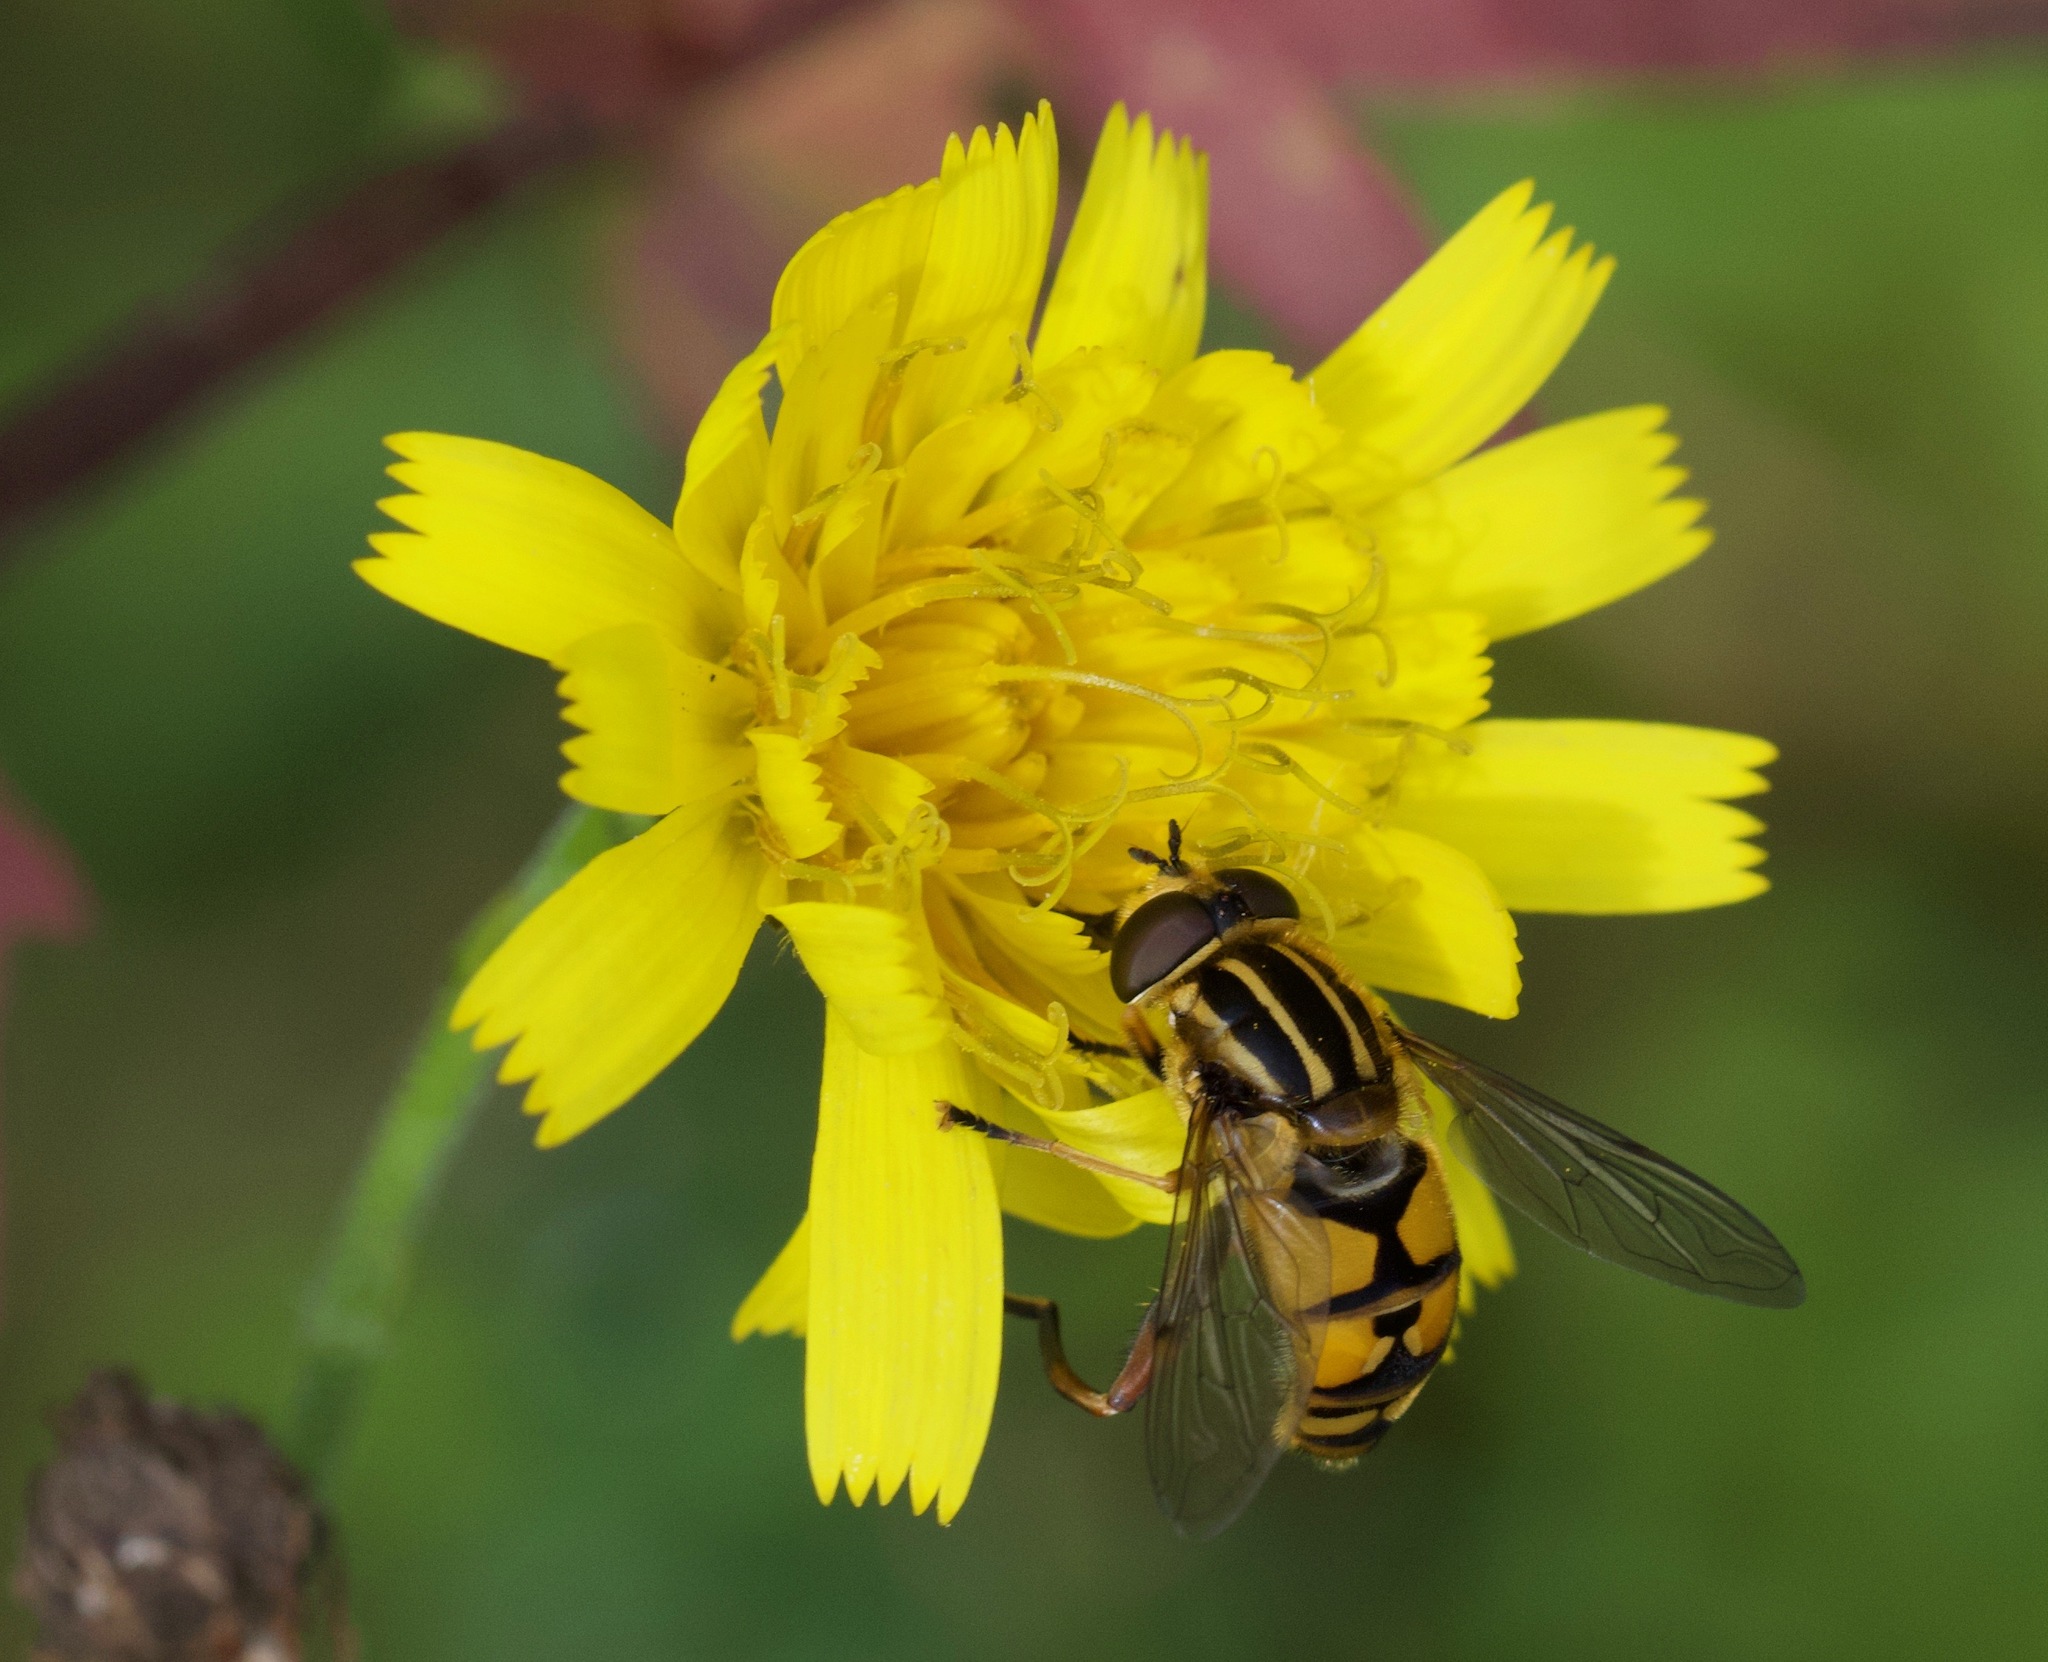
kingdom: Animalia
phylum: Arthropoda
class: Insecta
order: Diptera
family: Syrphidae
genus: Helophilus
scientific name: Helophilus pendulus
